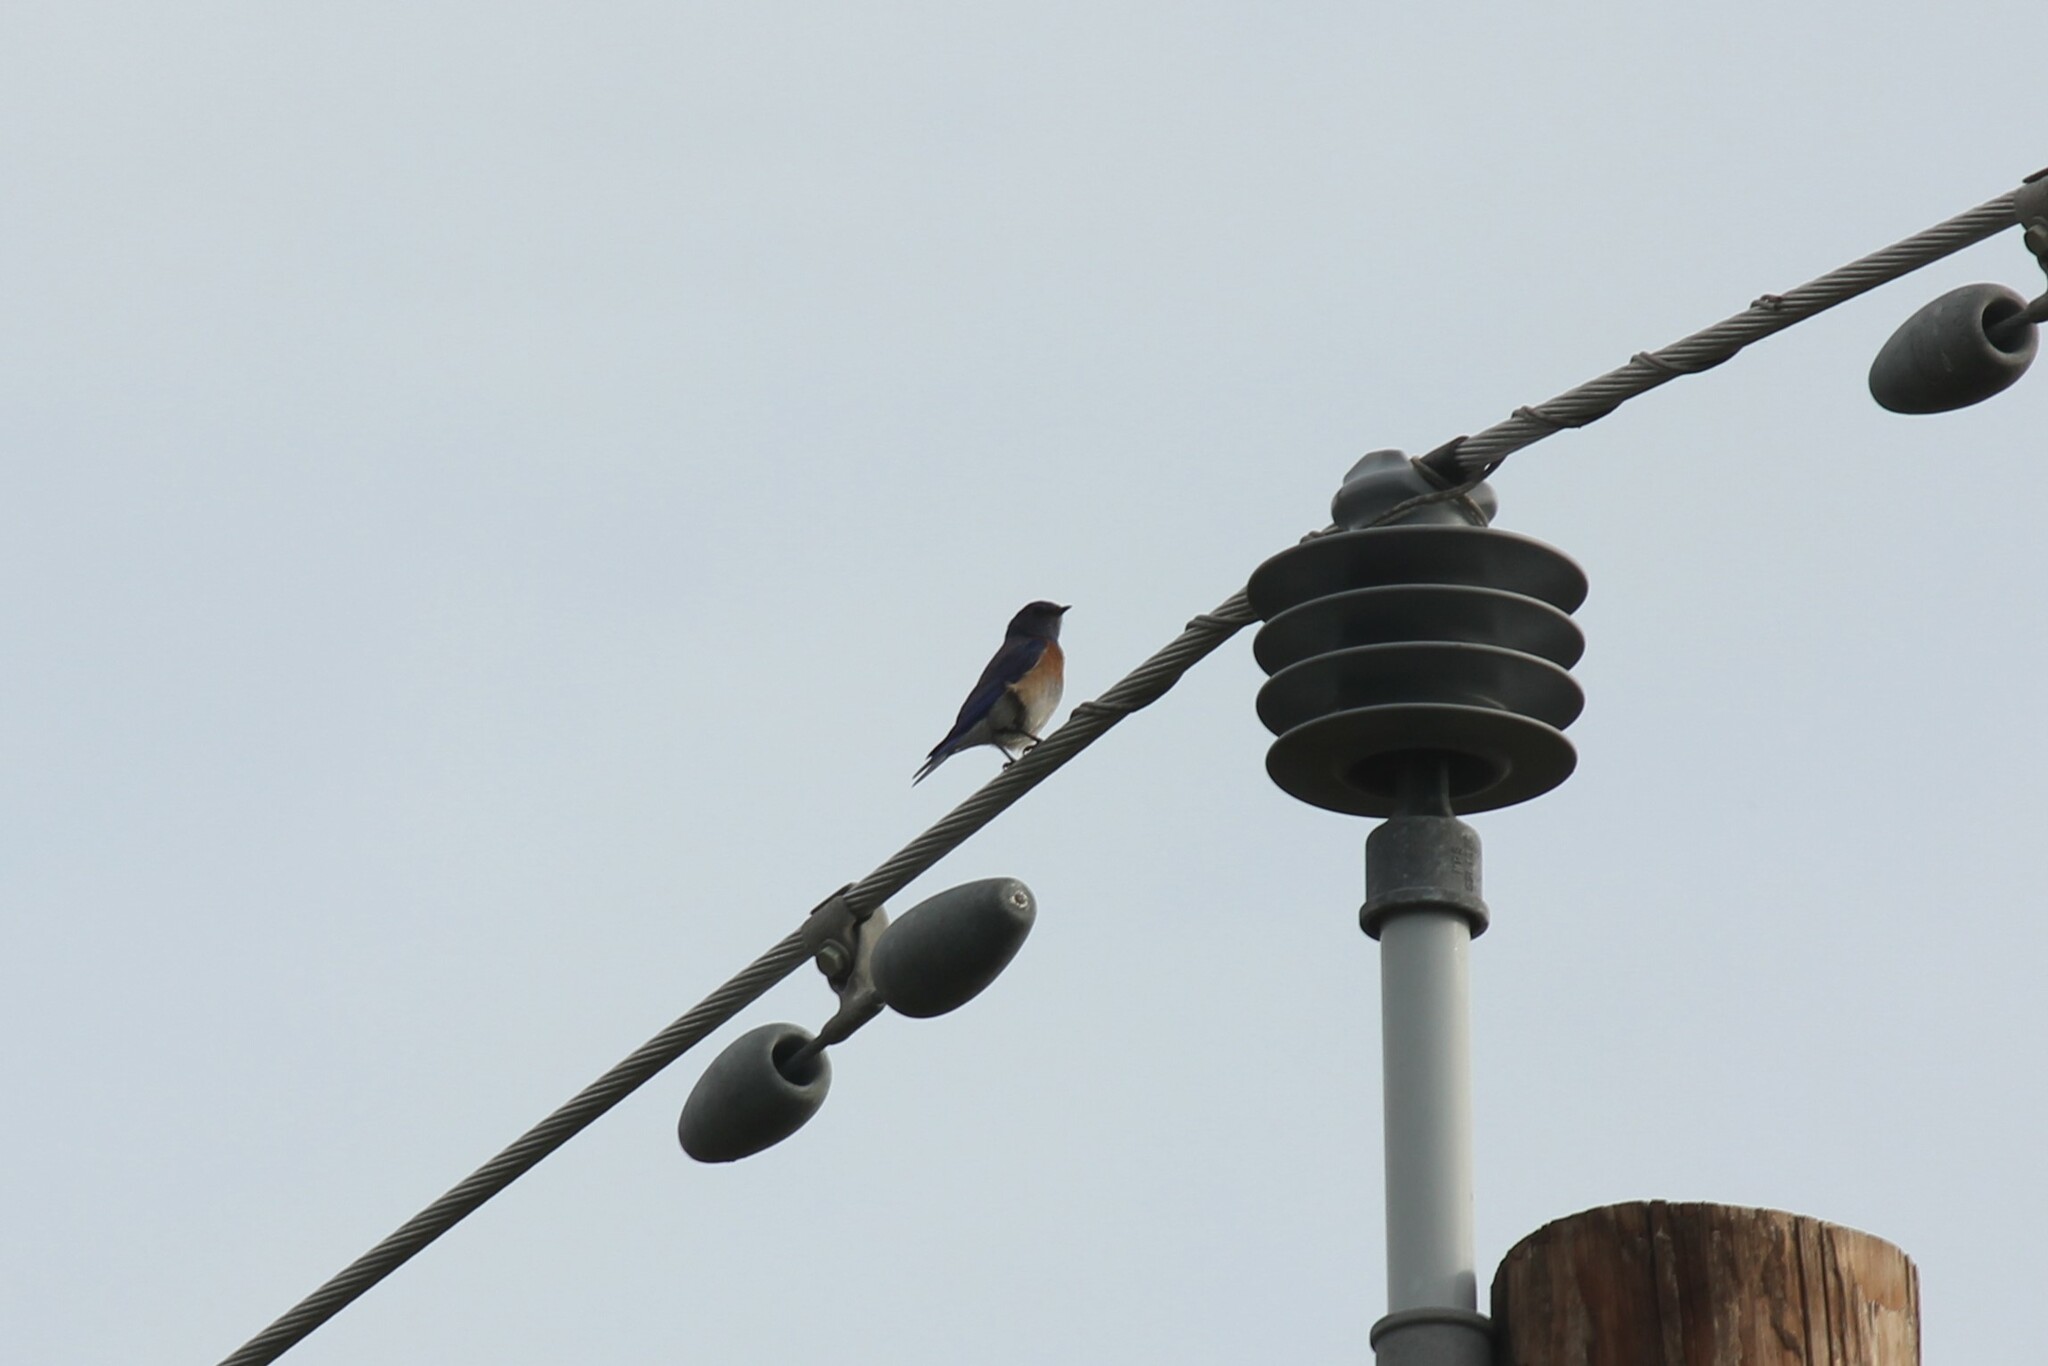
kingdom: Animalia
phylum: Chordata
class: Aves
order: Passeriformes
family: Turdidae
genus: Sialia
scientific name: Sialia mexicana
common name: Western bluebird
